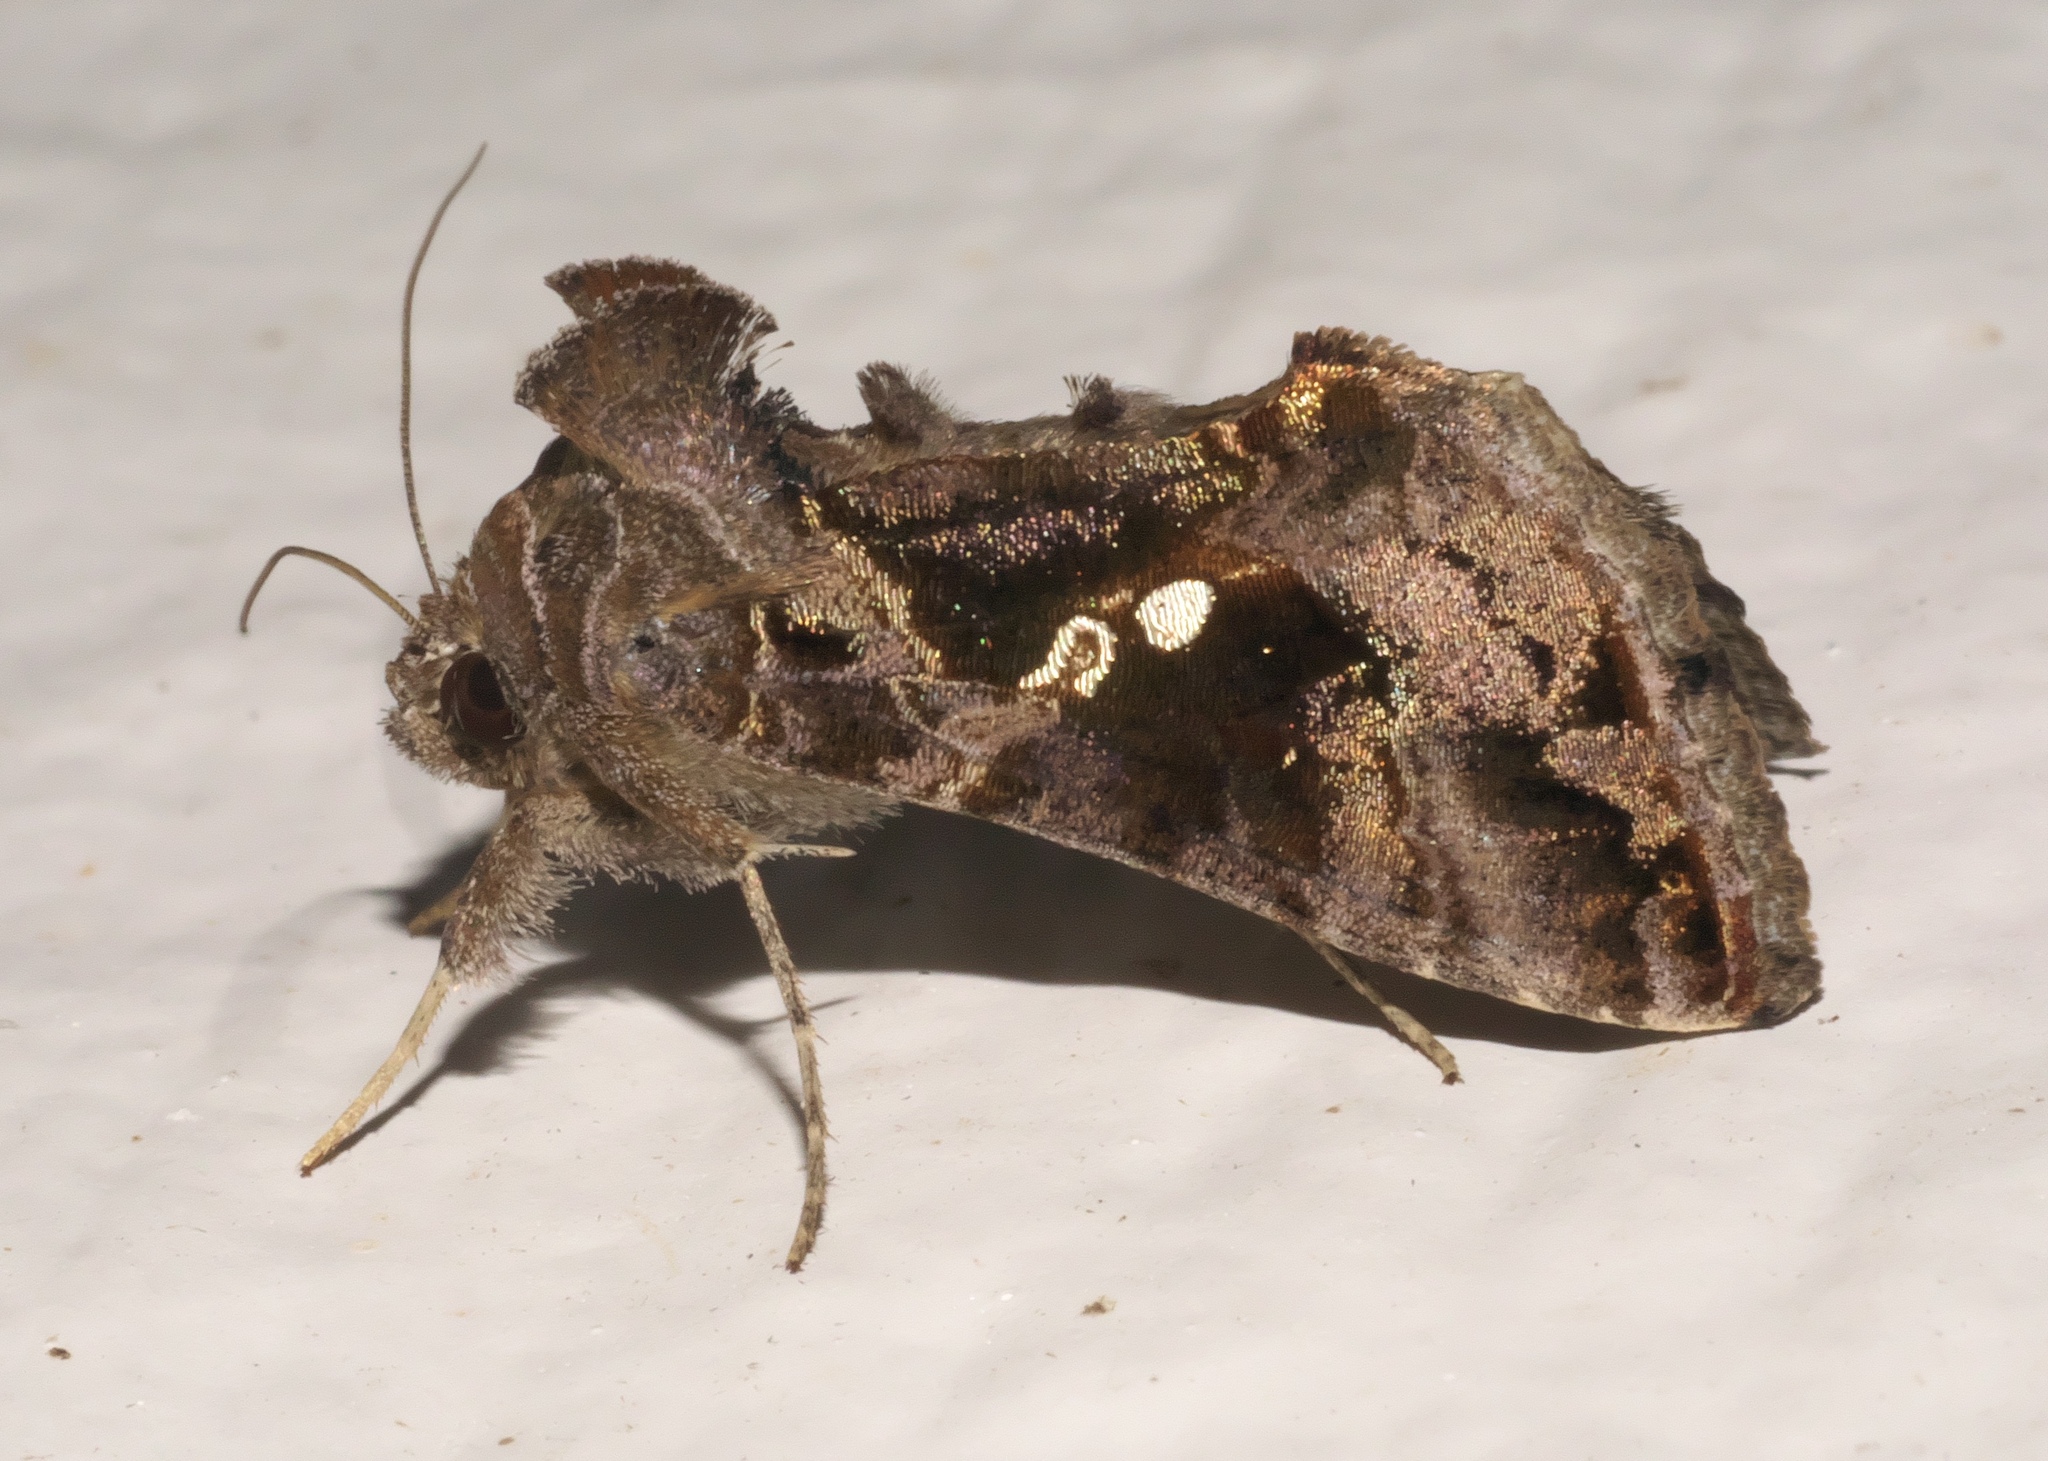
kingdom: Animalia
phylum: Arthropoda
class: Insecta
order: Lepidoptera
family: Noctuidae
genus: Chrysodeixis
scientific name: Chrysodeixis includens
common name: Cutworm moth
